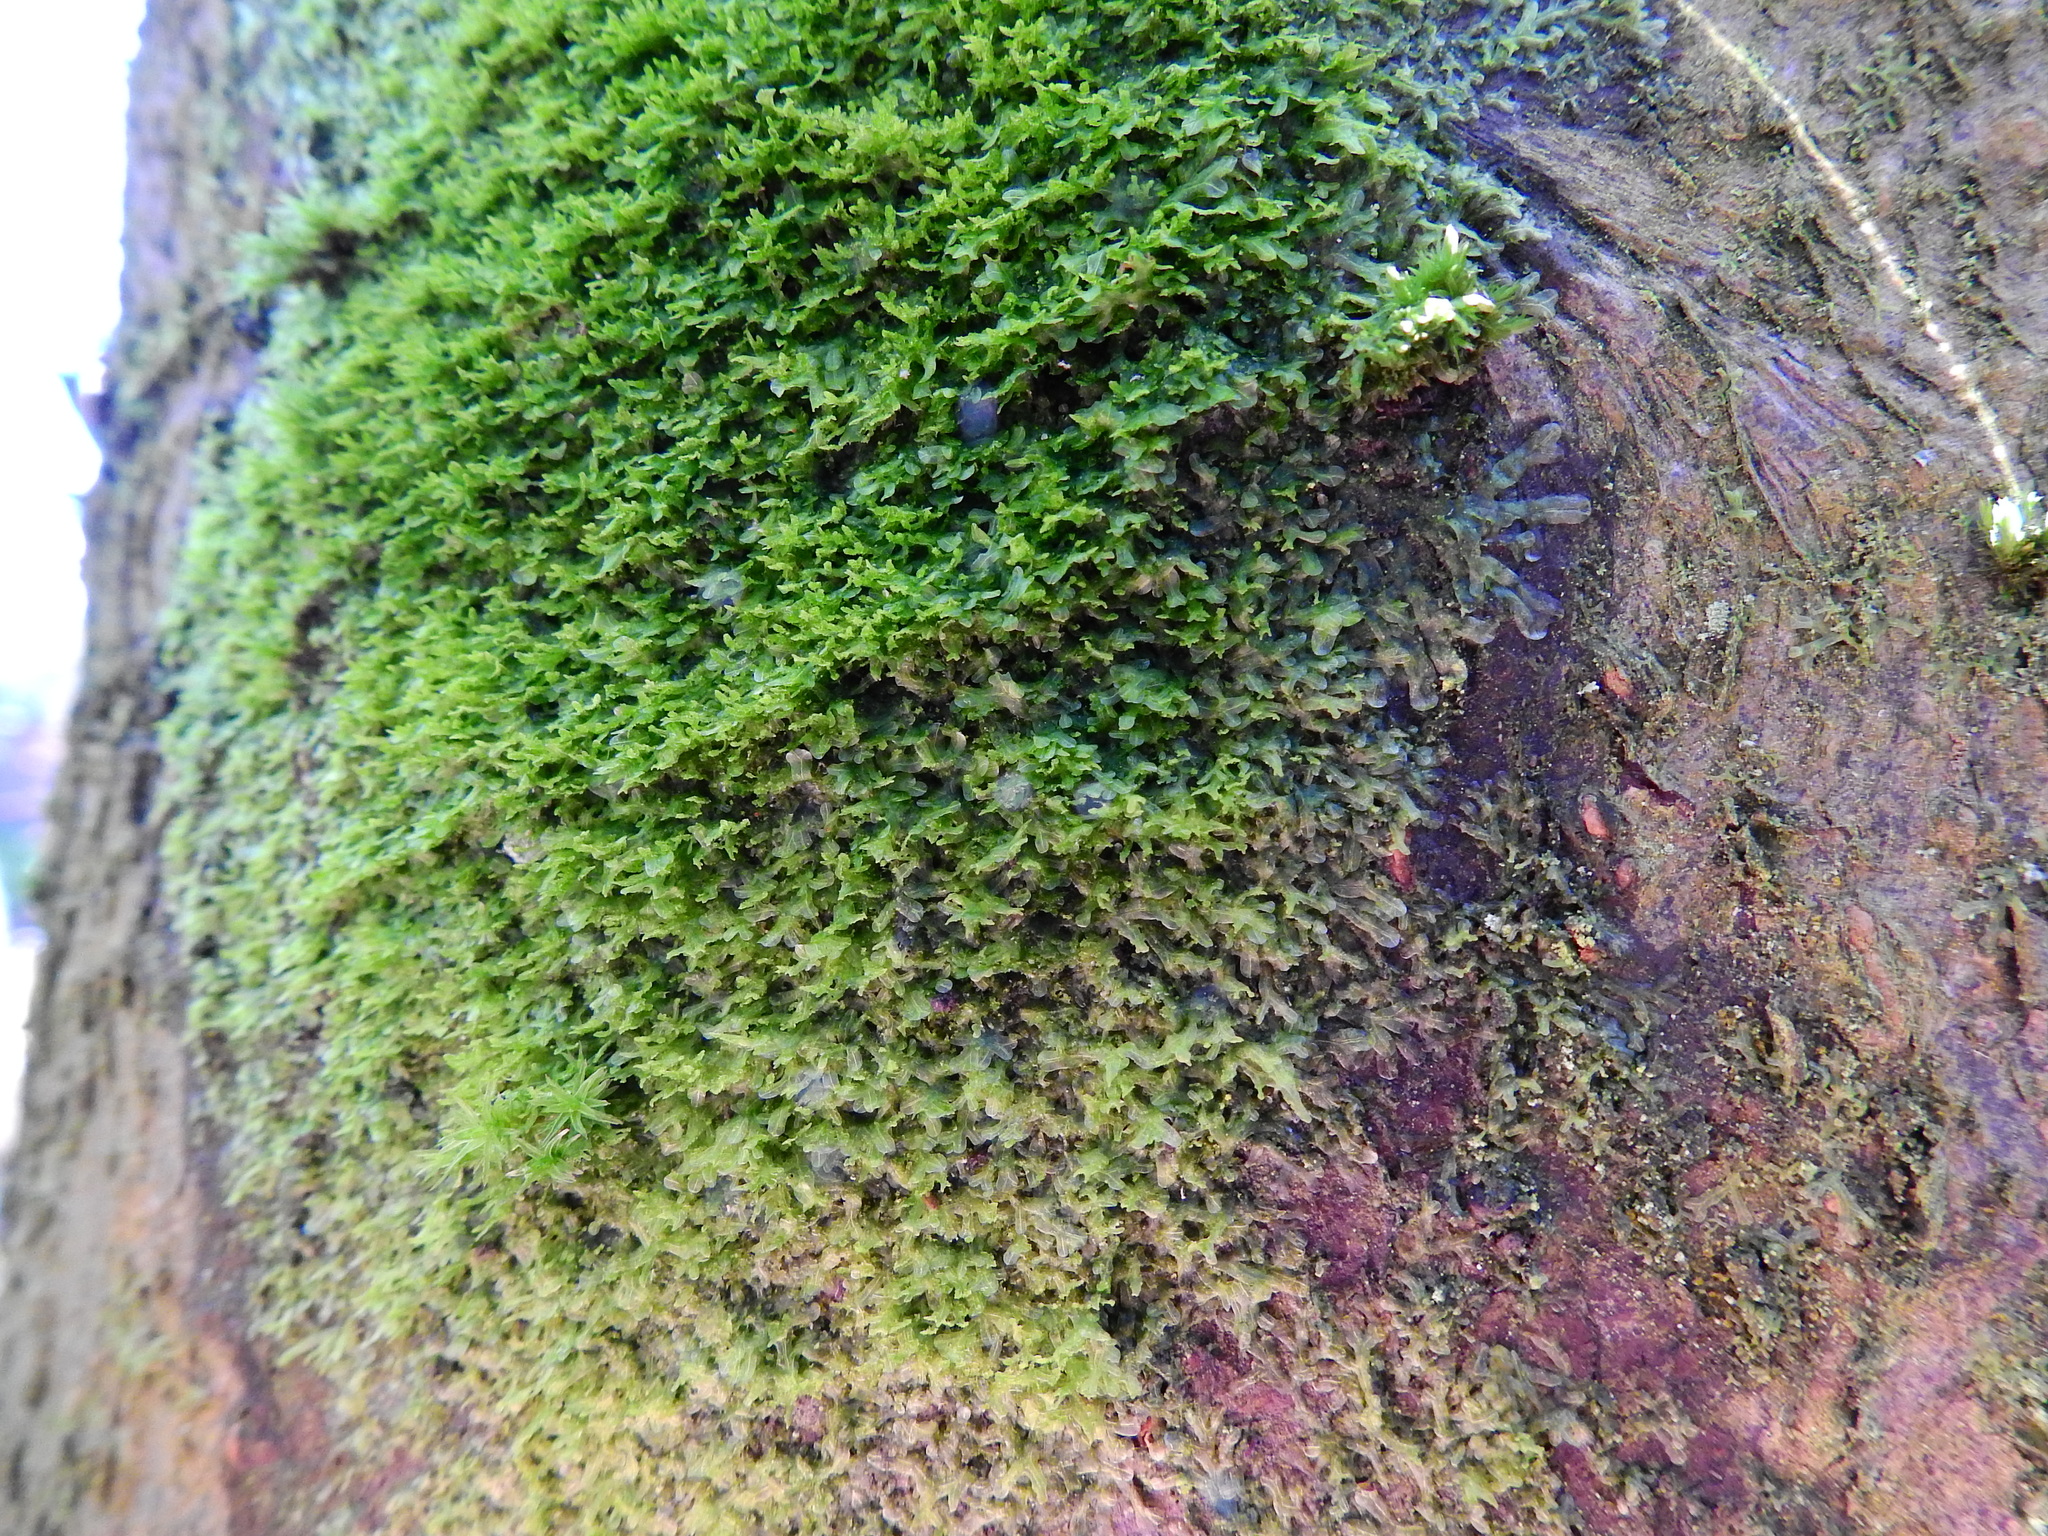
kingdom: Plantae
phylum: Marchantiophyta
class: Jungermanniopsida
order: Metzgeriales
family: Metzgeriaceae
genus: Metzgeria
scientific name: Metzgeria violacea
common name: Blueish veilwort
